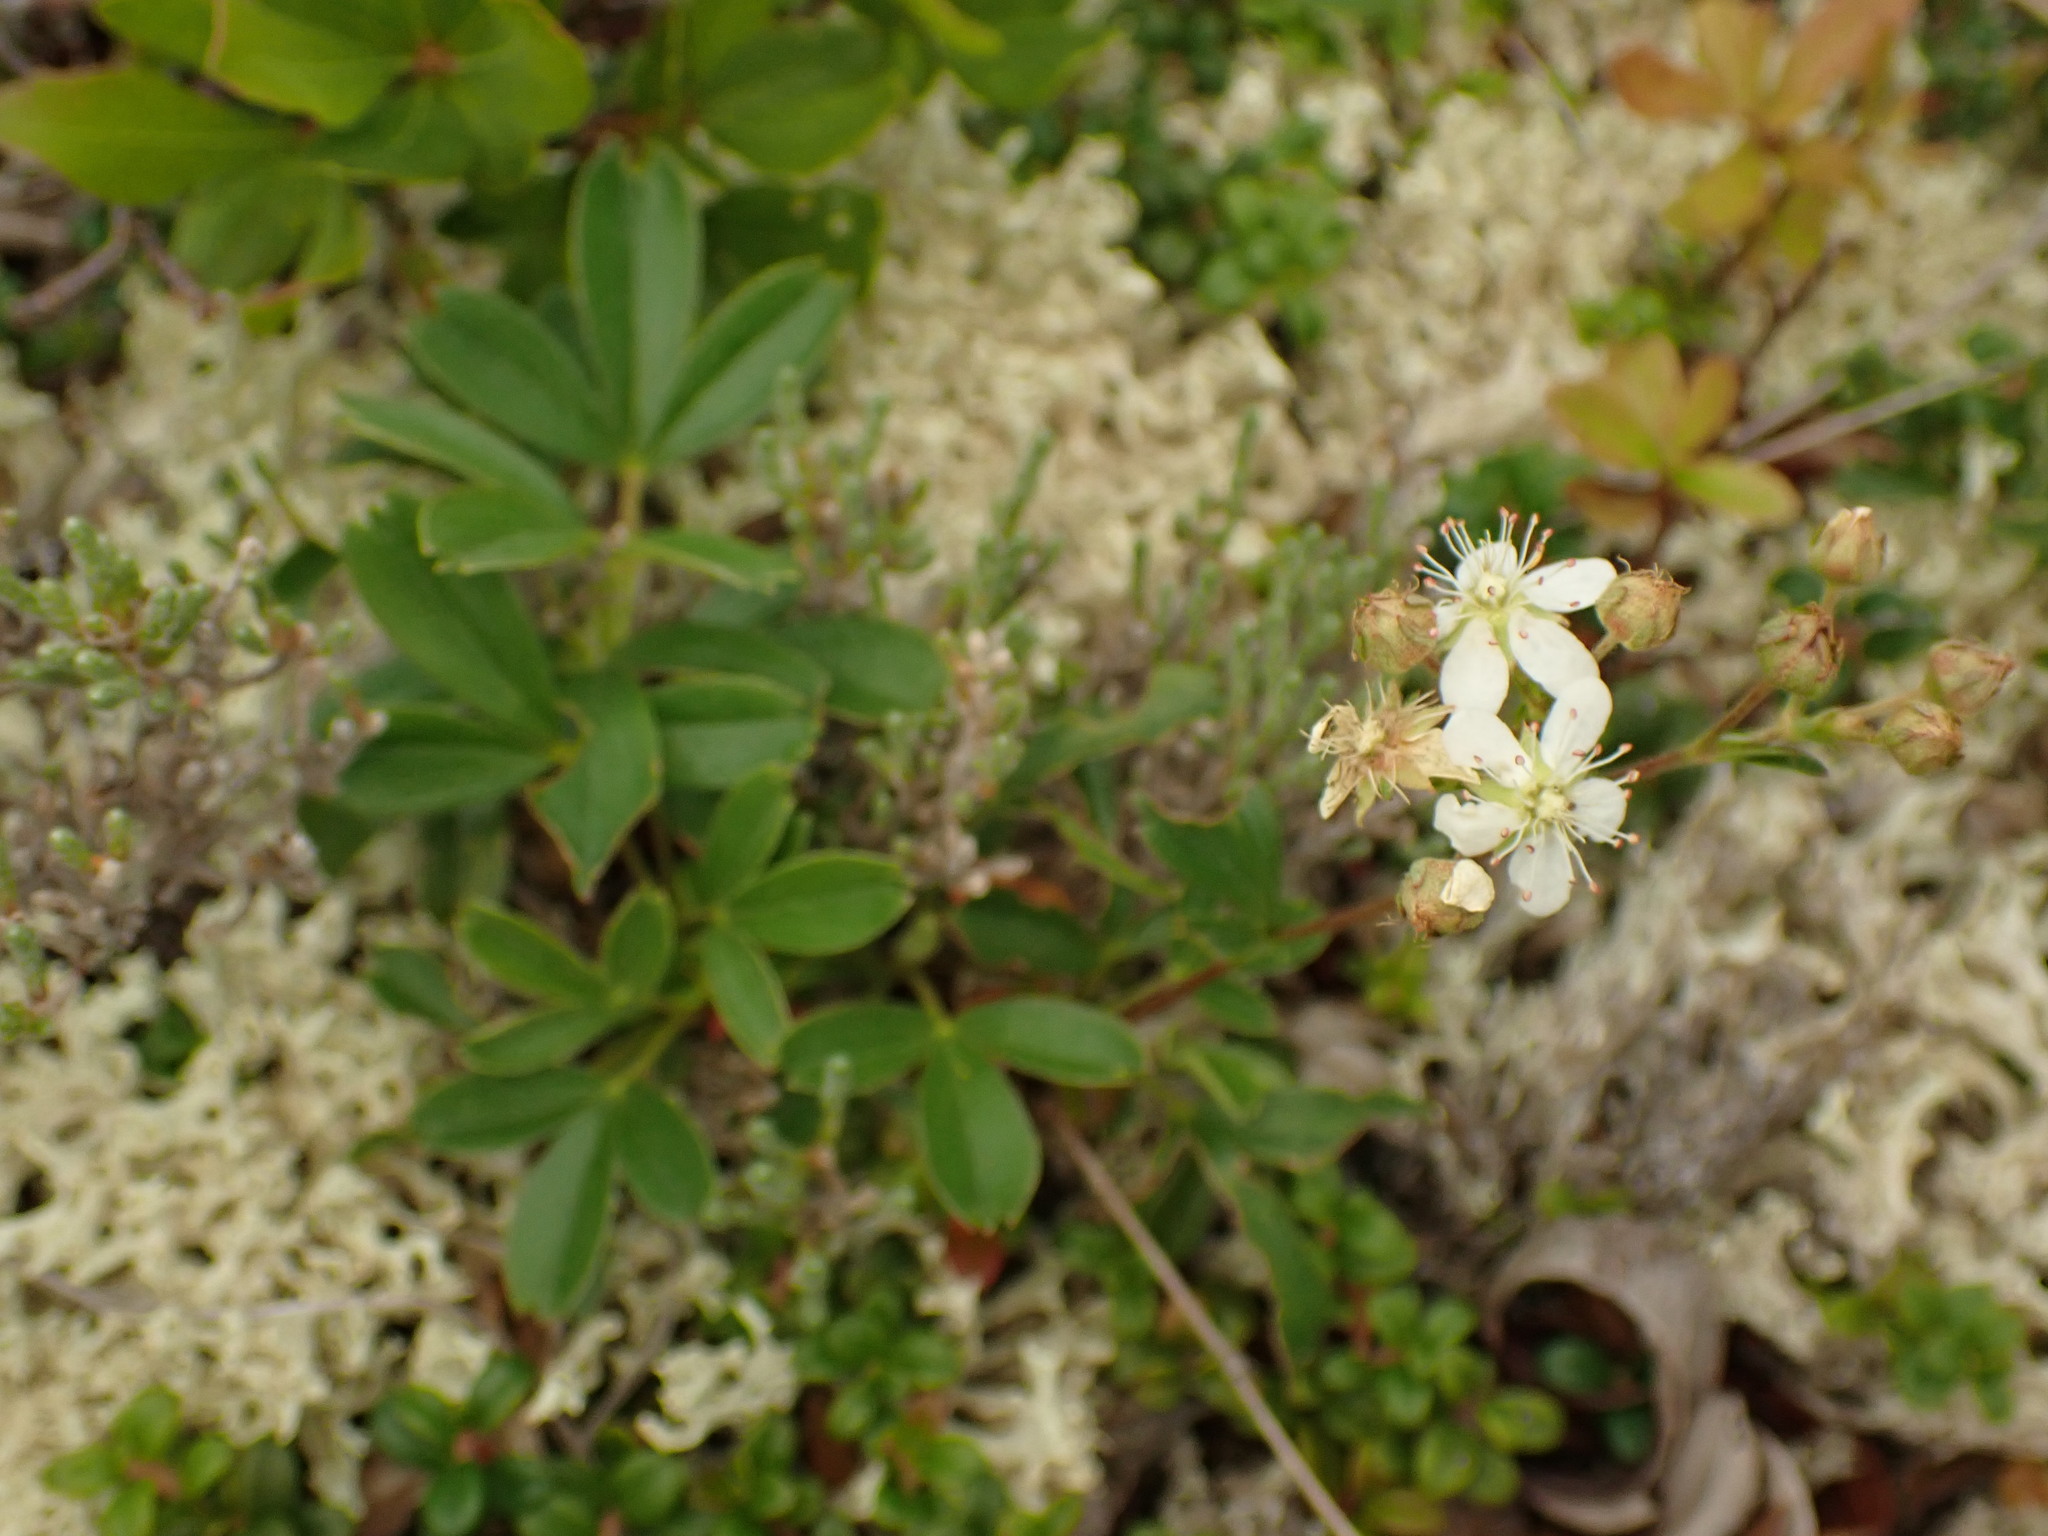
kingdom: Plantae
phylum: Tracheophyta
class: Magnoliopsida
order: Rosales
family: Rosaceae
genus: Sibbaldia
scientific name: Sibbaldia tridentata
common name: Three-toothed cinquefoil
